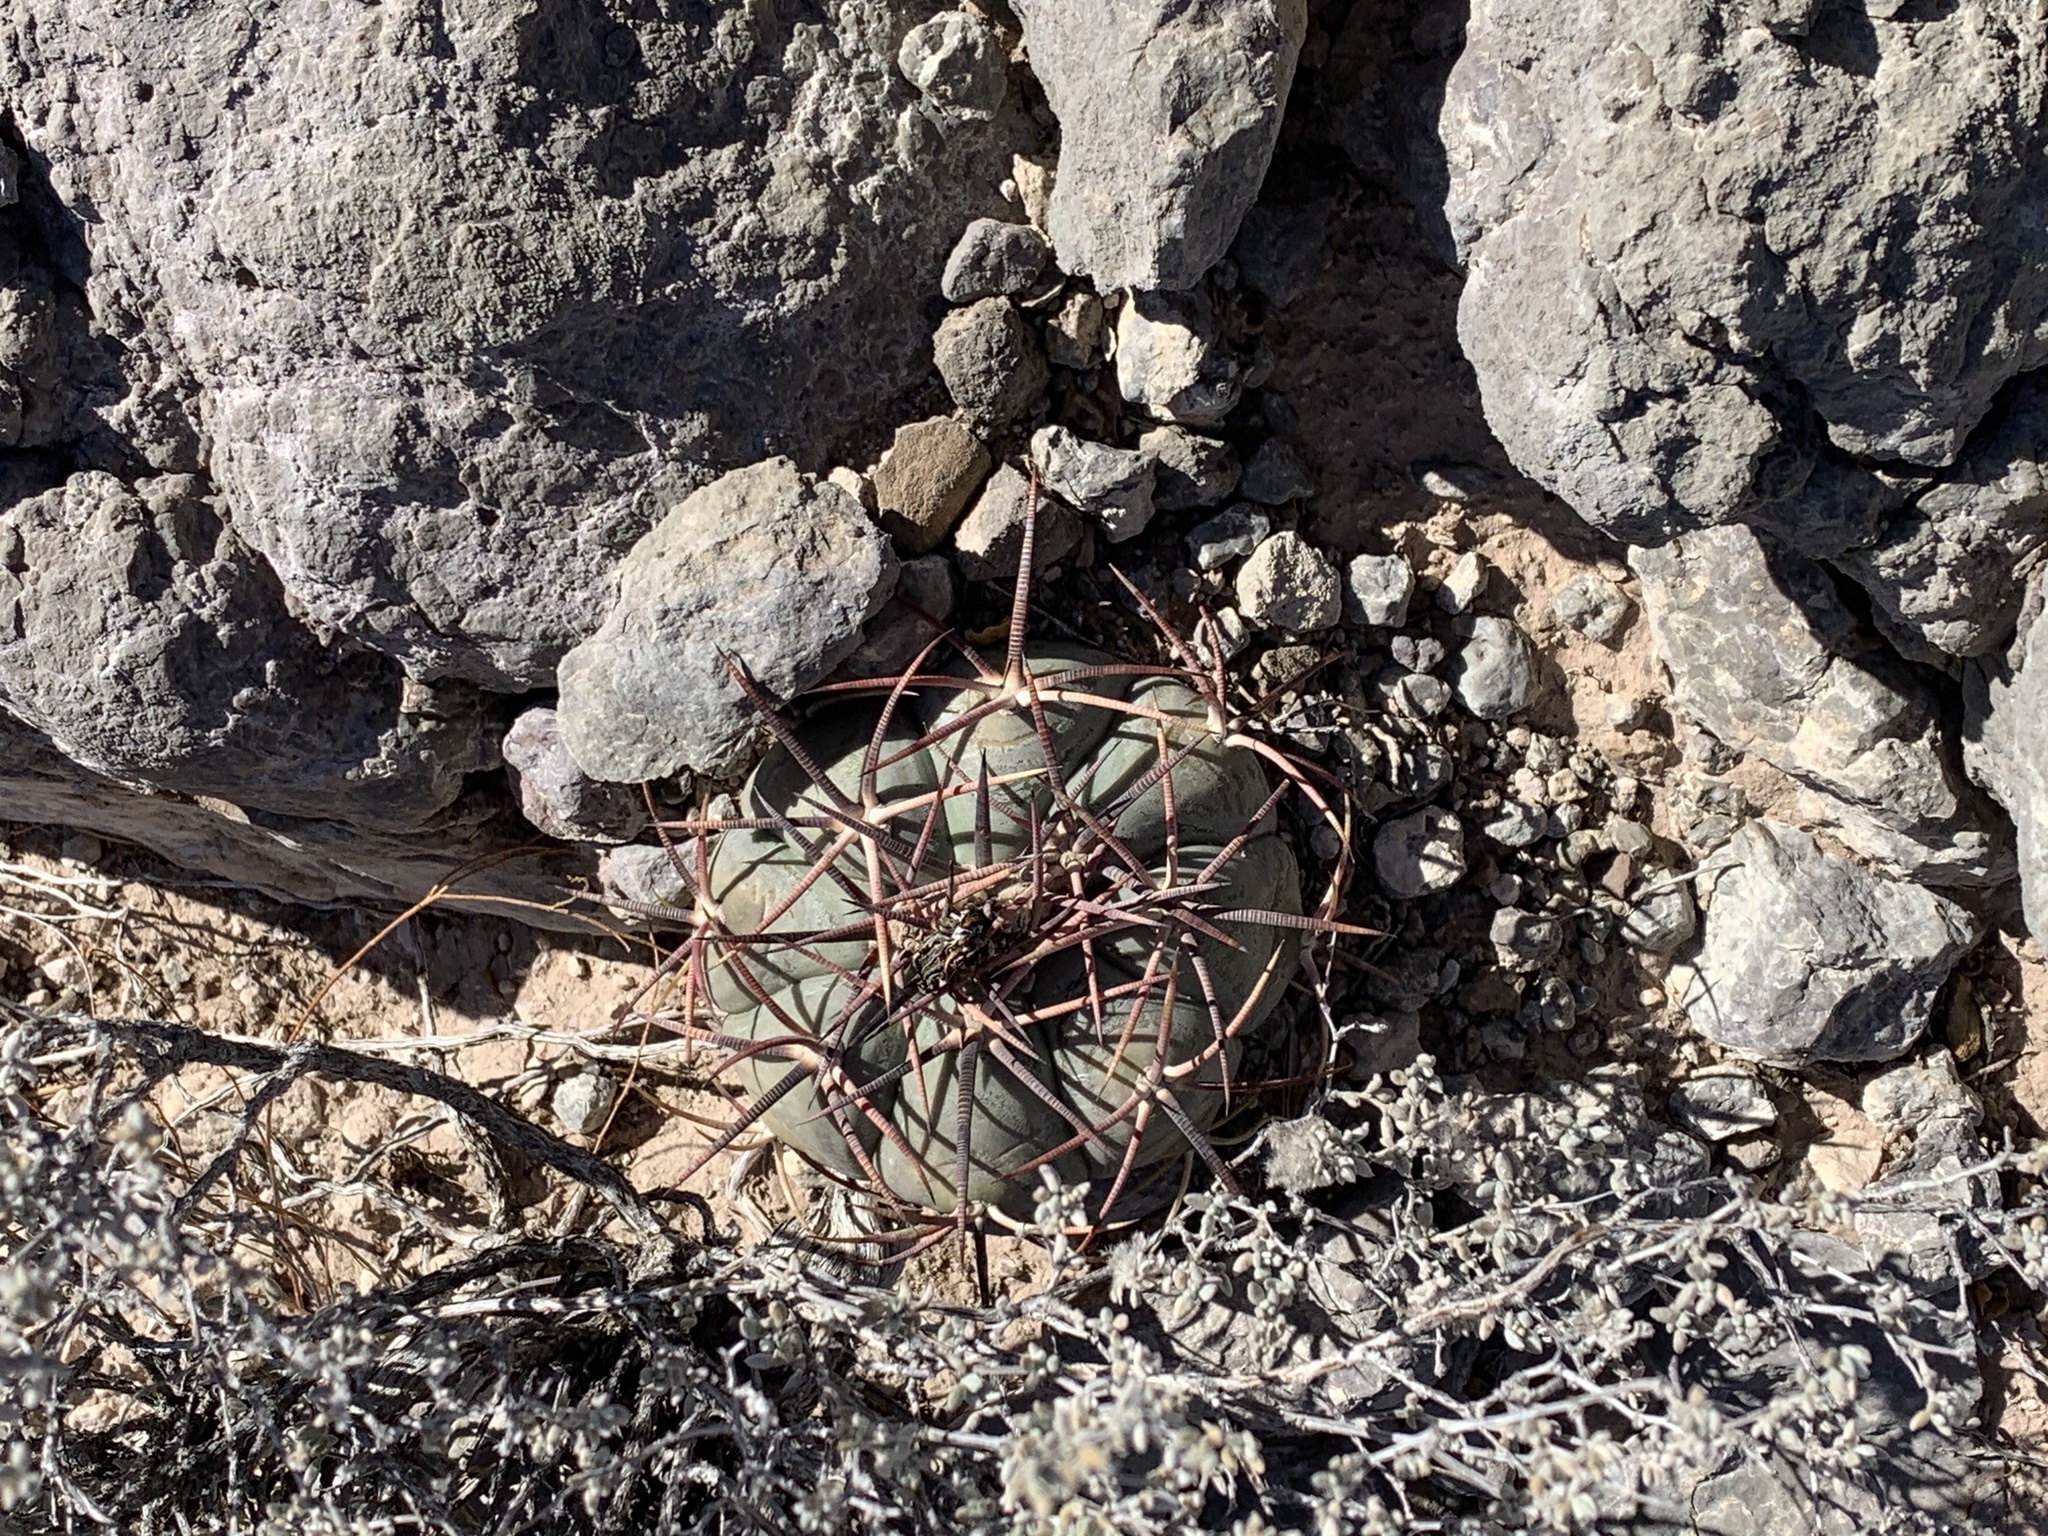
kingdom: Plantae
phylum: Tracheophyta
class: Magnoliopsida
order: Caryophyllales
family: Cactaceae
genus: Echinocactus
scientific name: Echinocactus horizonthalonius
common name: Devilshead
